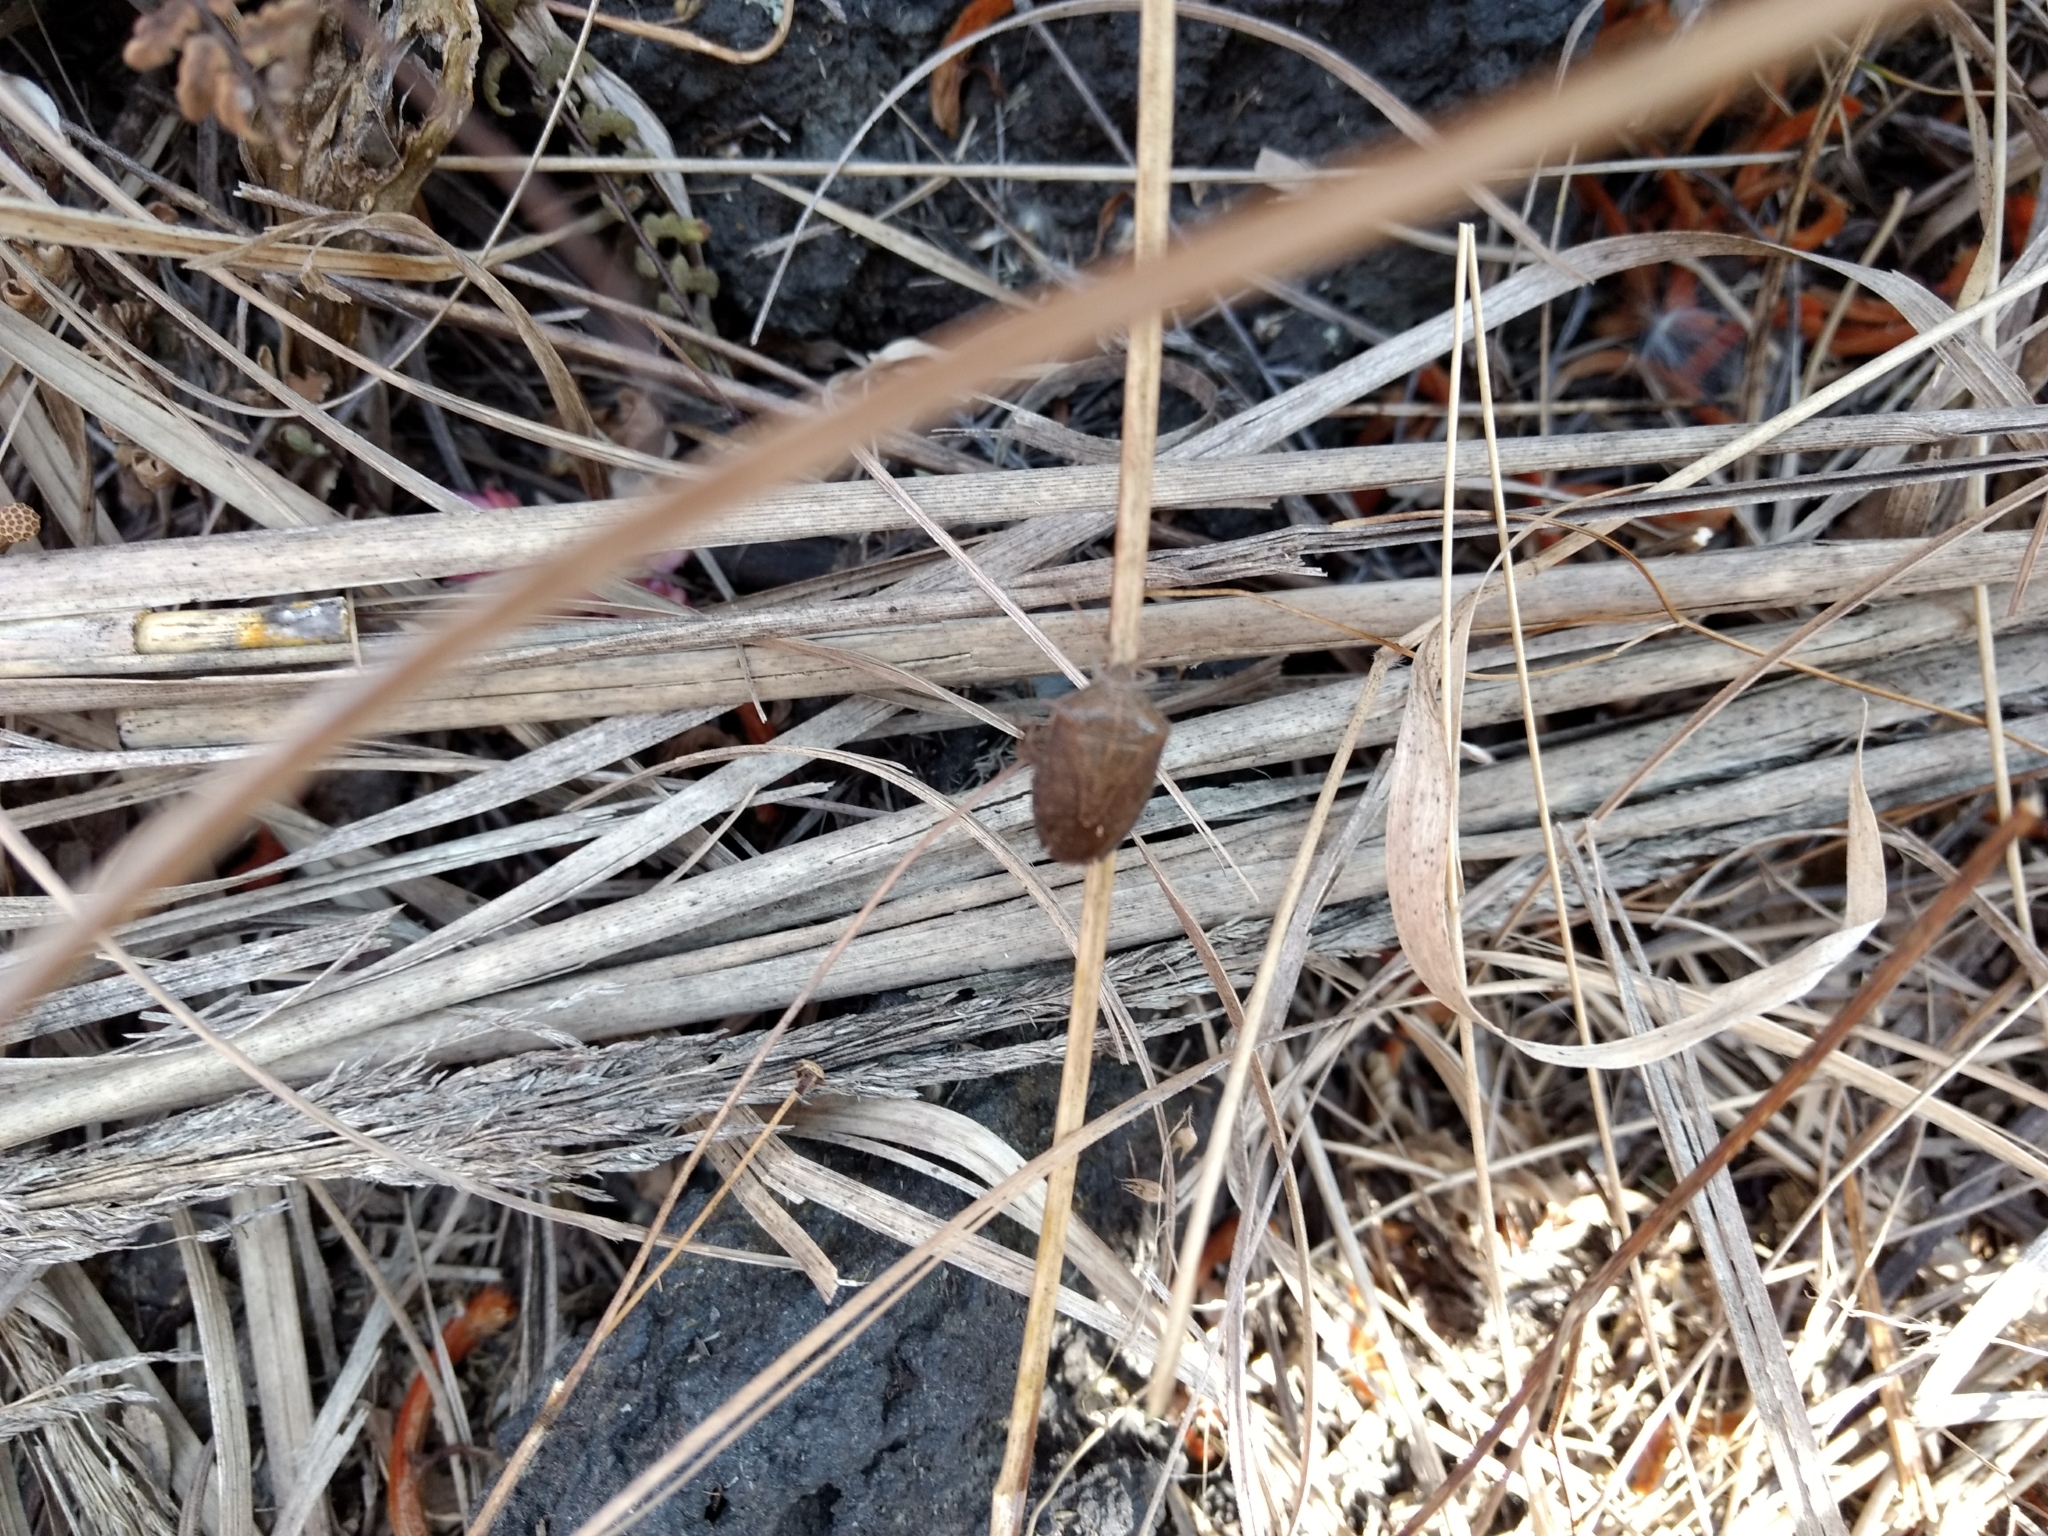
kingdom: Animalia
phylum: Arthropoda
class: Insecta
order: Hemiptera
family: Pentatomidae
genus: Ascra
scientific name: Ascra
